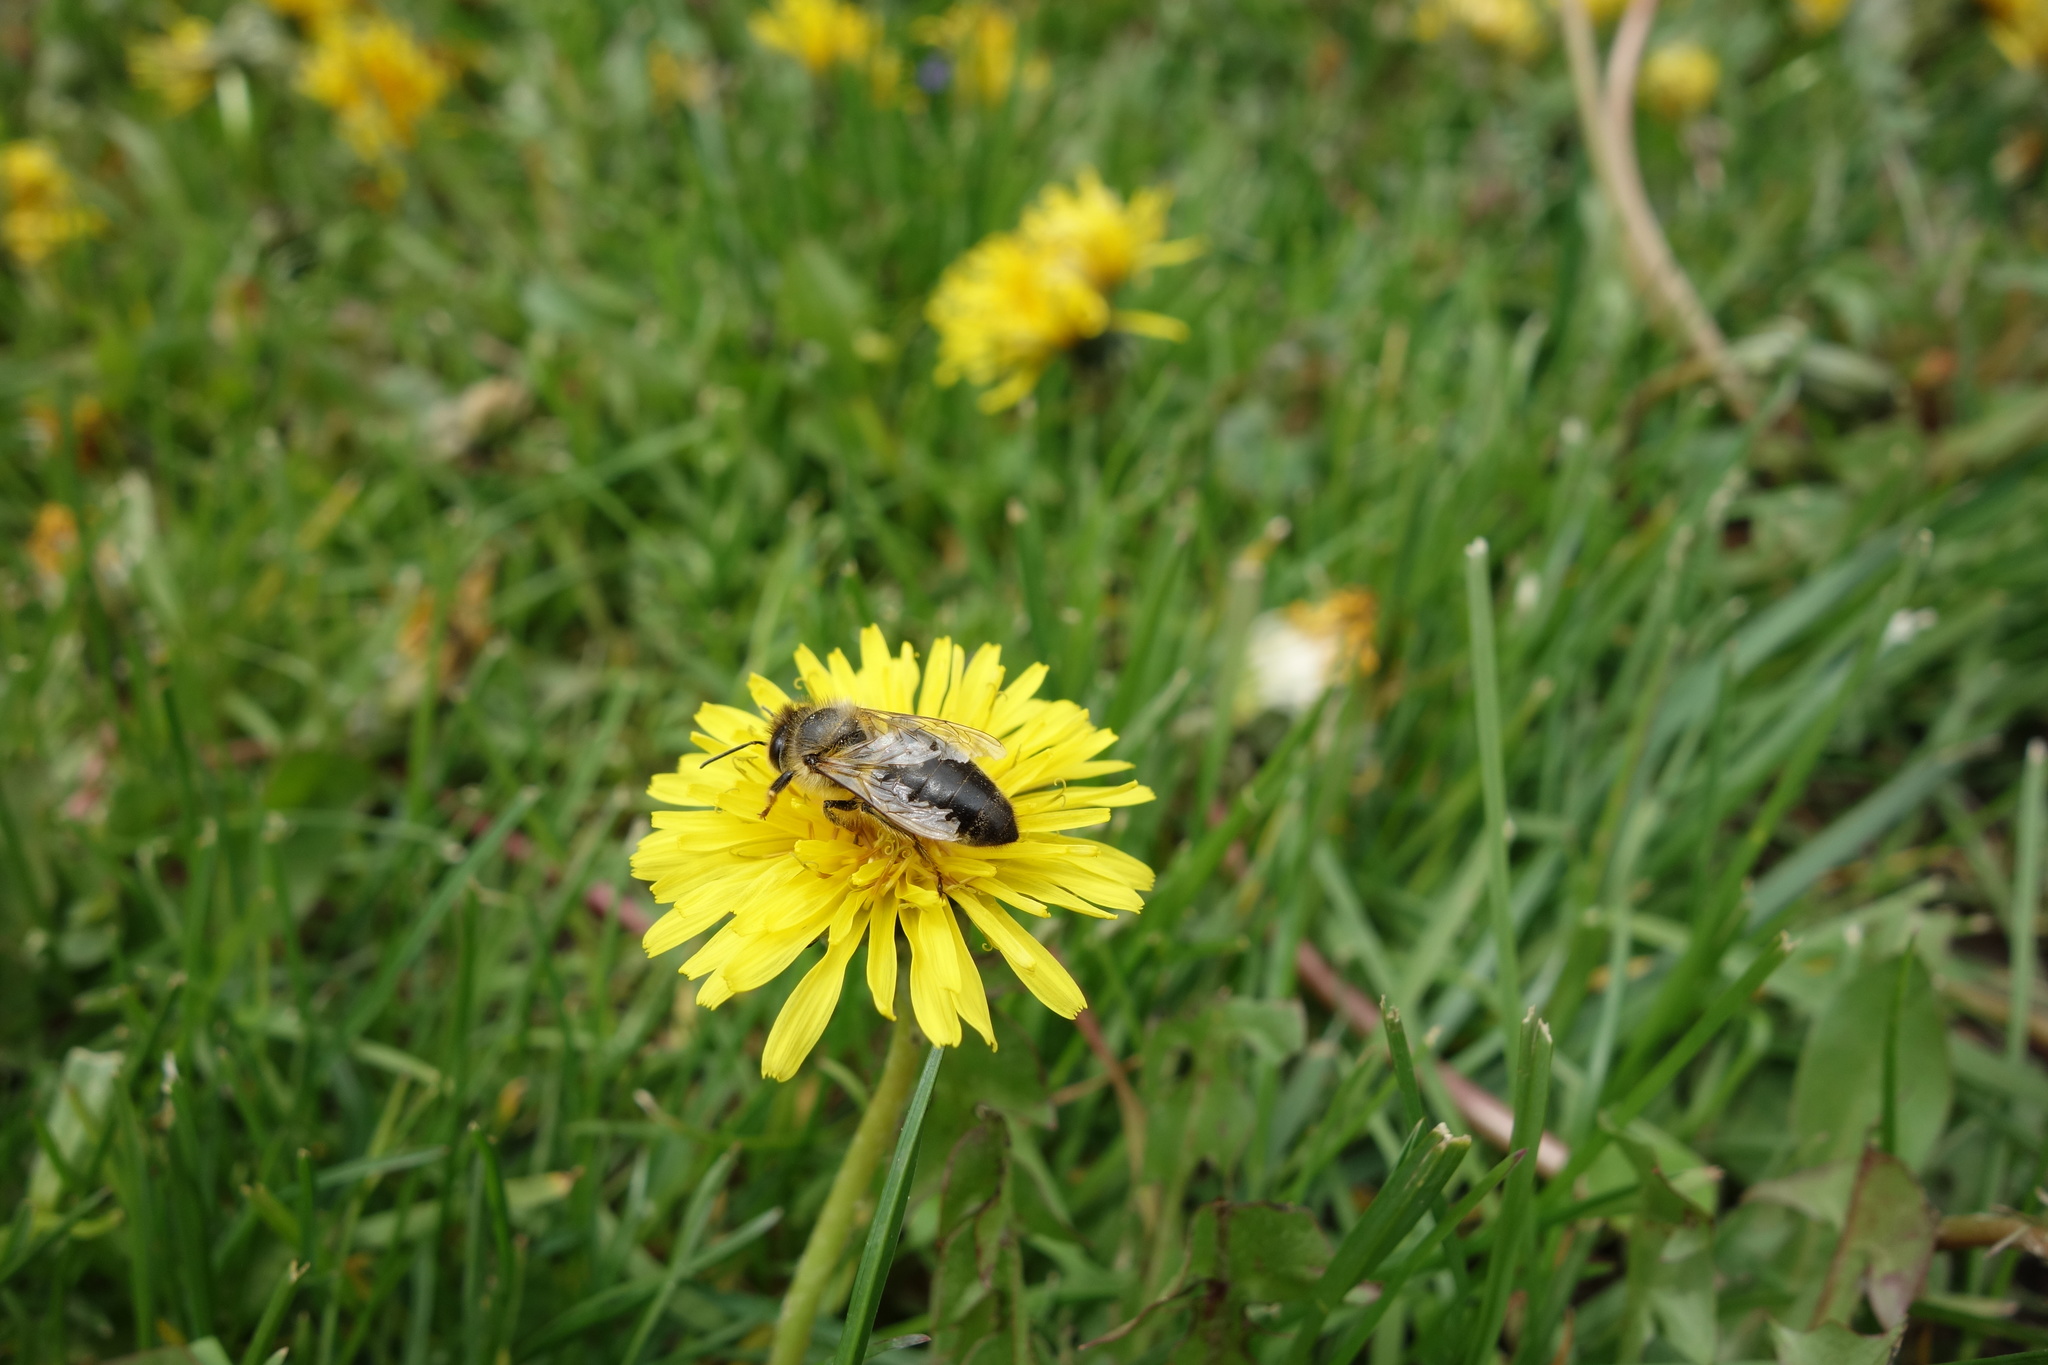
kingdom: Animalia
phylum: Arthropoda
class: Insecta
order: Hymenoptera
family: Apidae
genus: Apis
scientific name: Apis mellifera
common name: Honey bee
